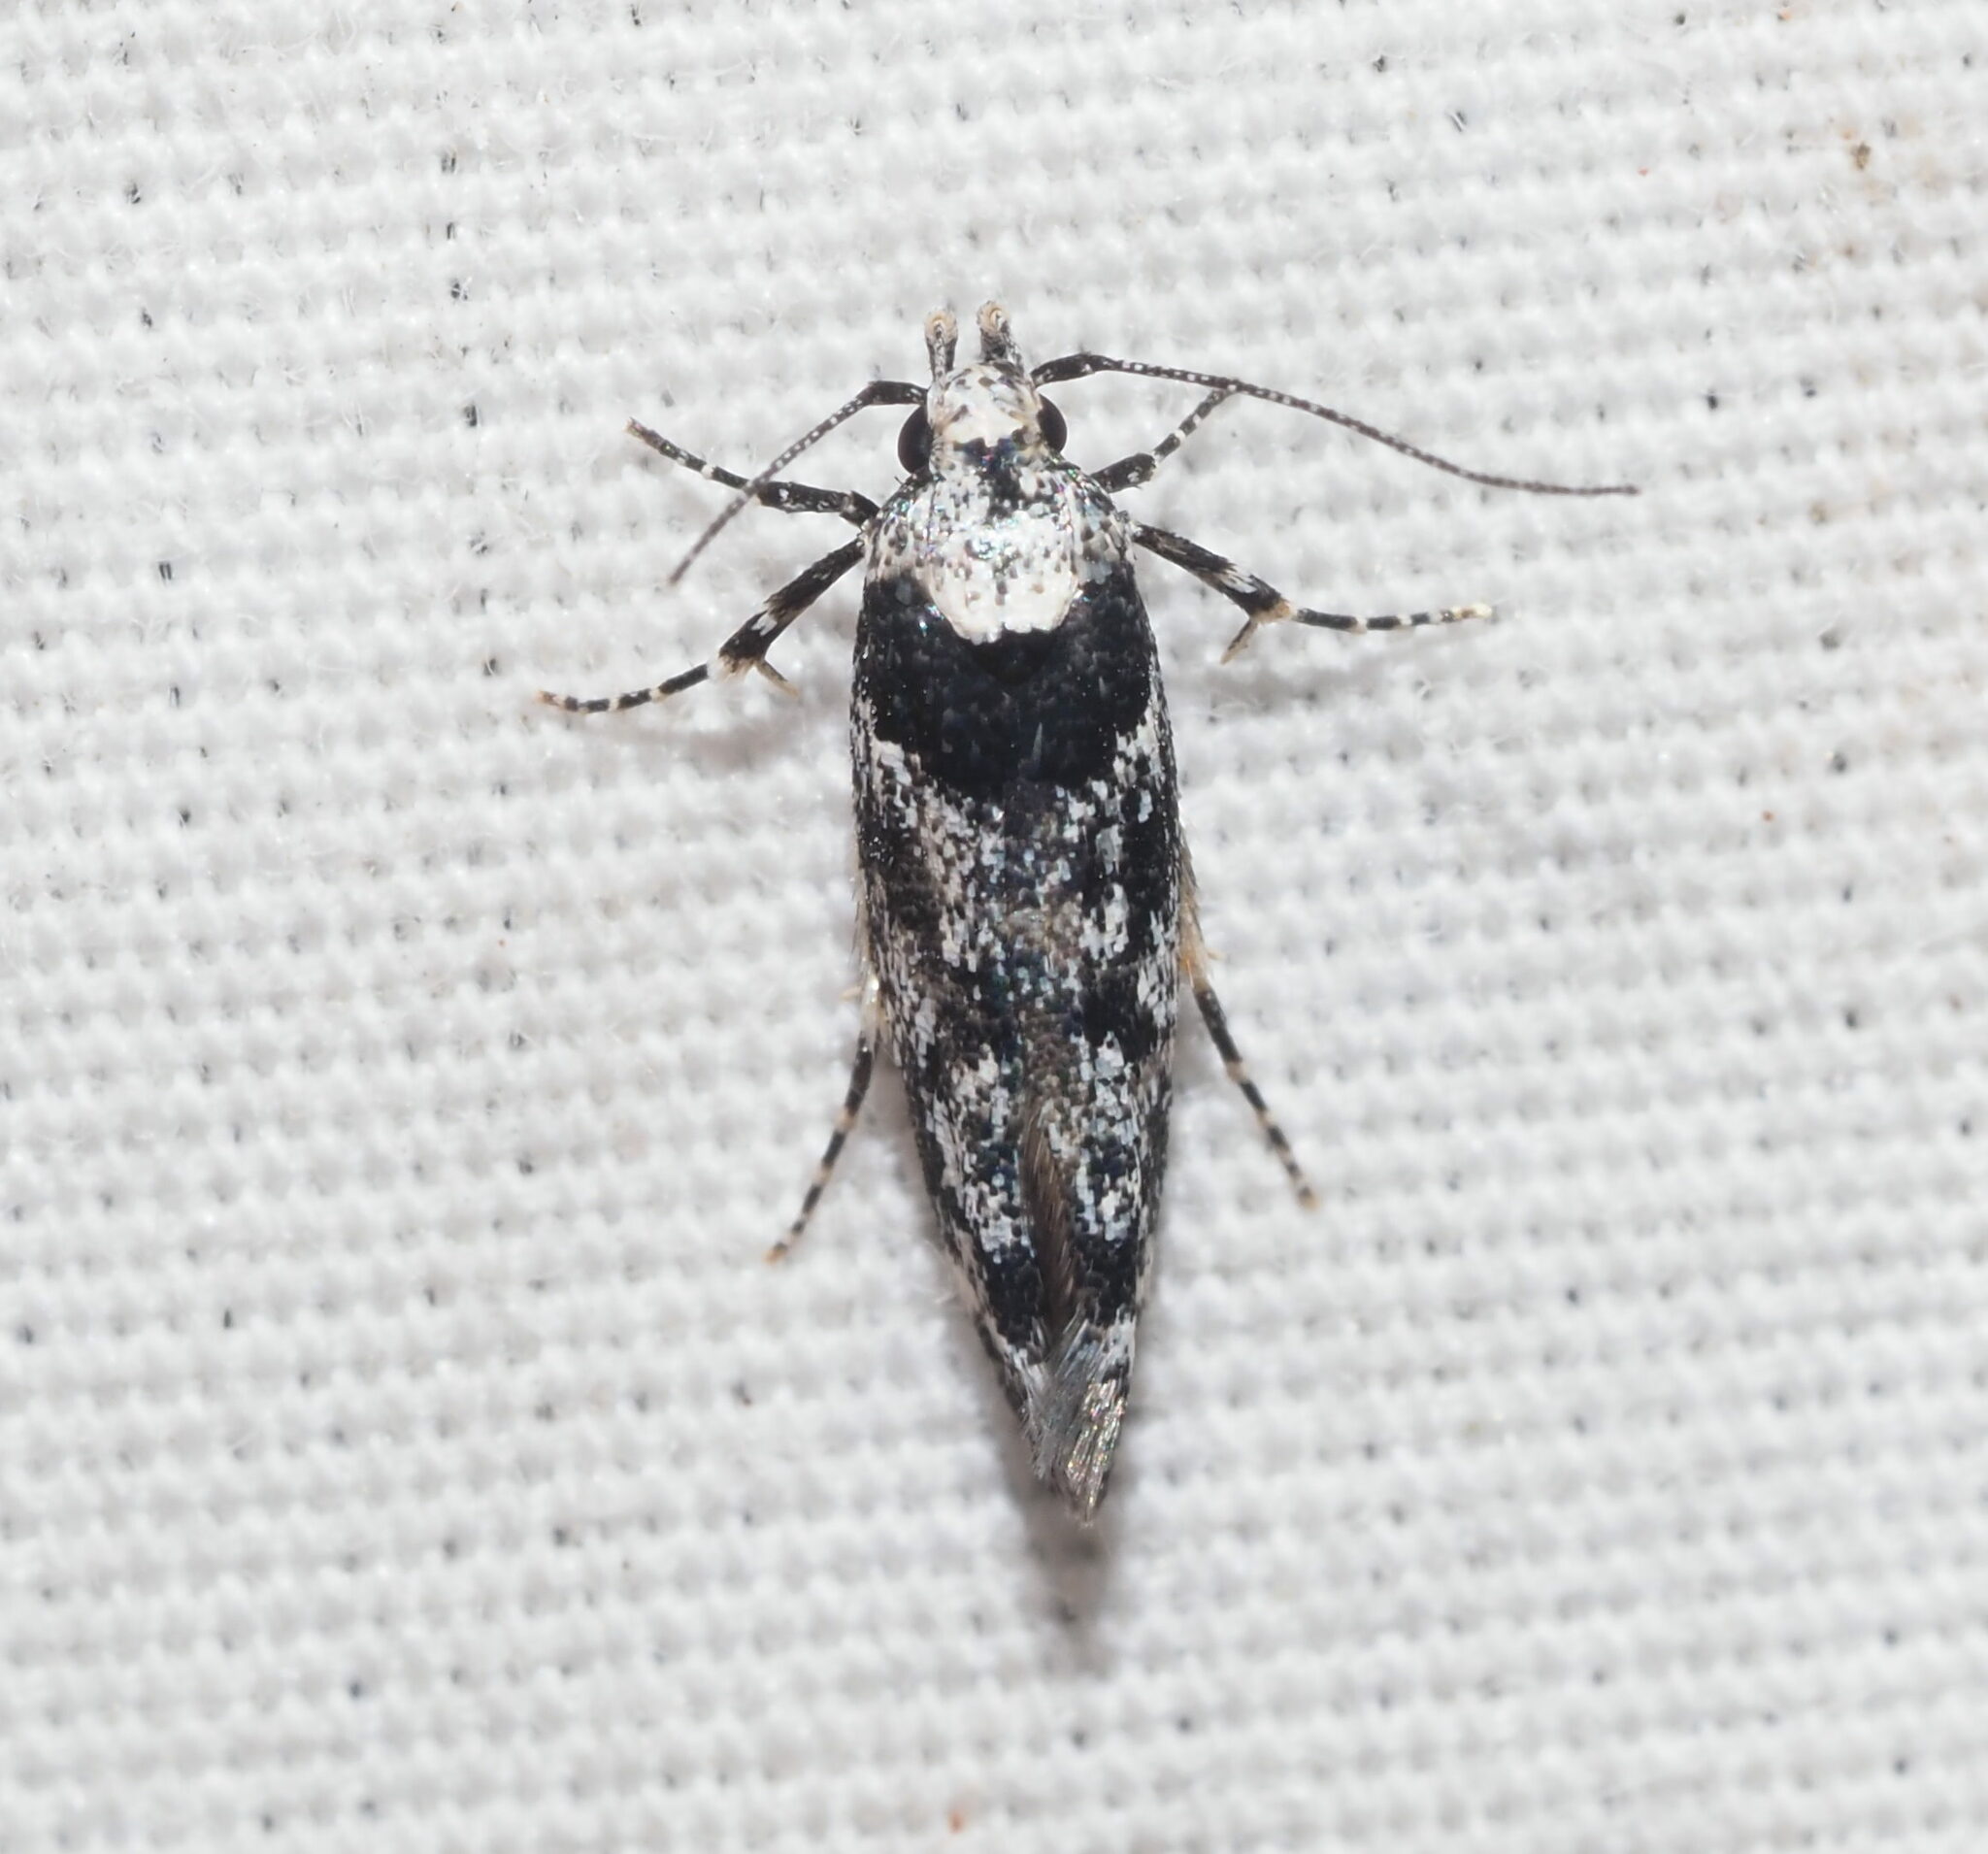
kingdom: Animalia
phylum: Arthropoda
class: Insecta
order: Lepidoptera
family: Cosmopterigidae
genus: Hyposmochoma
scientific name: Hyposmochoma empedota
